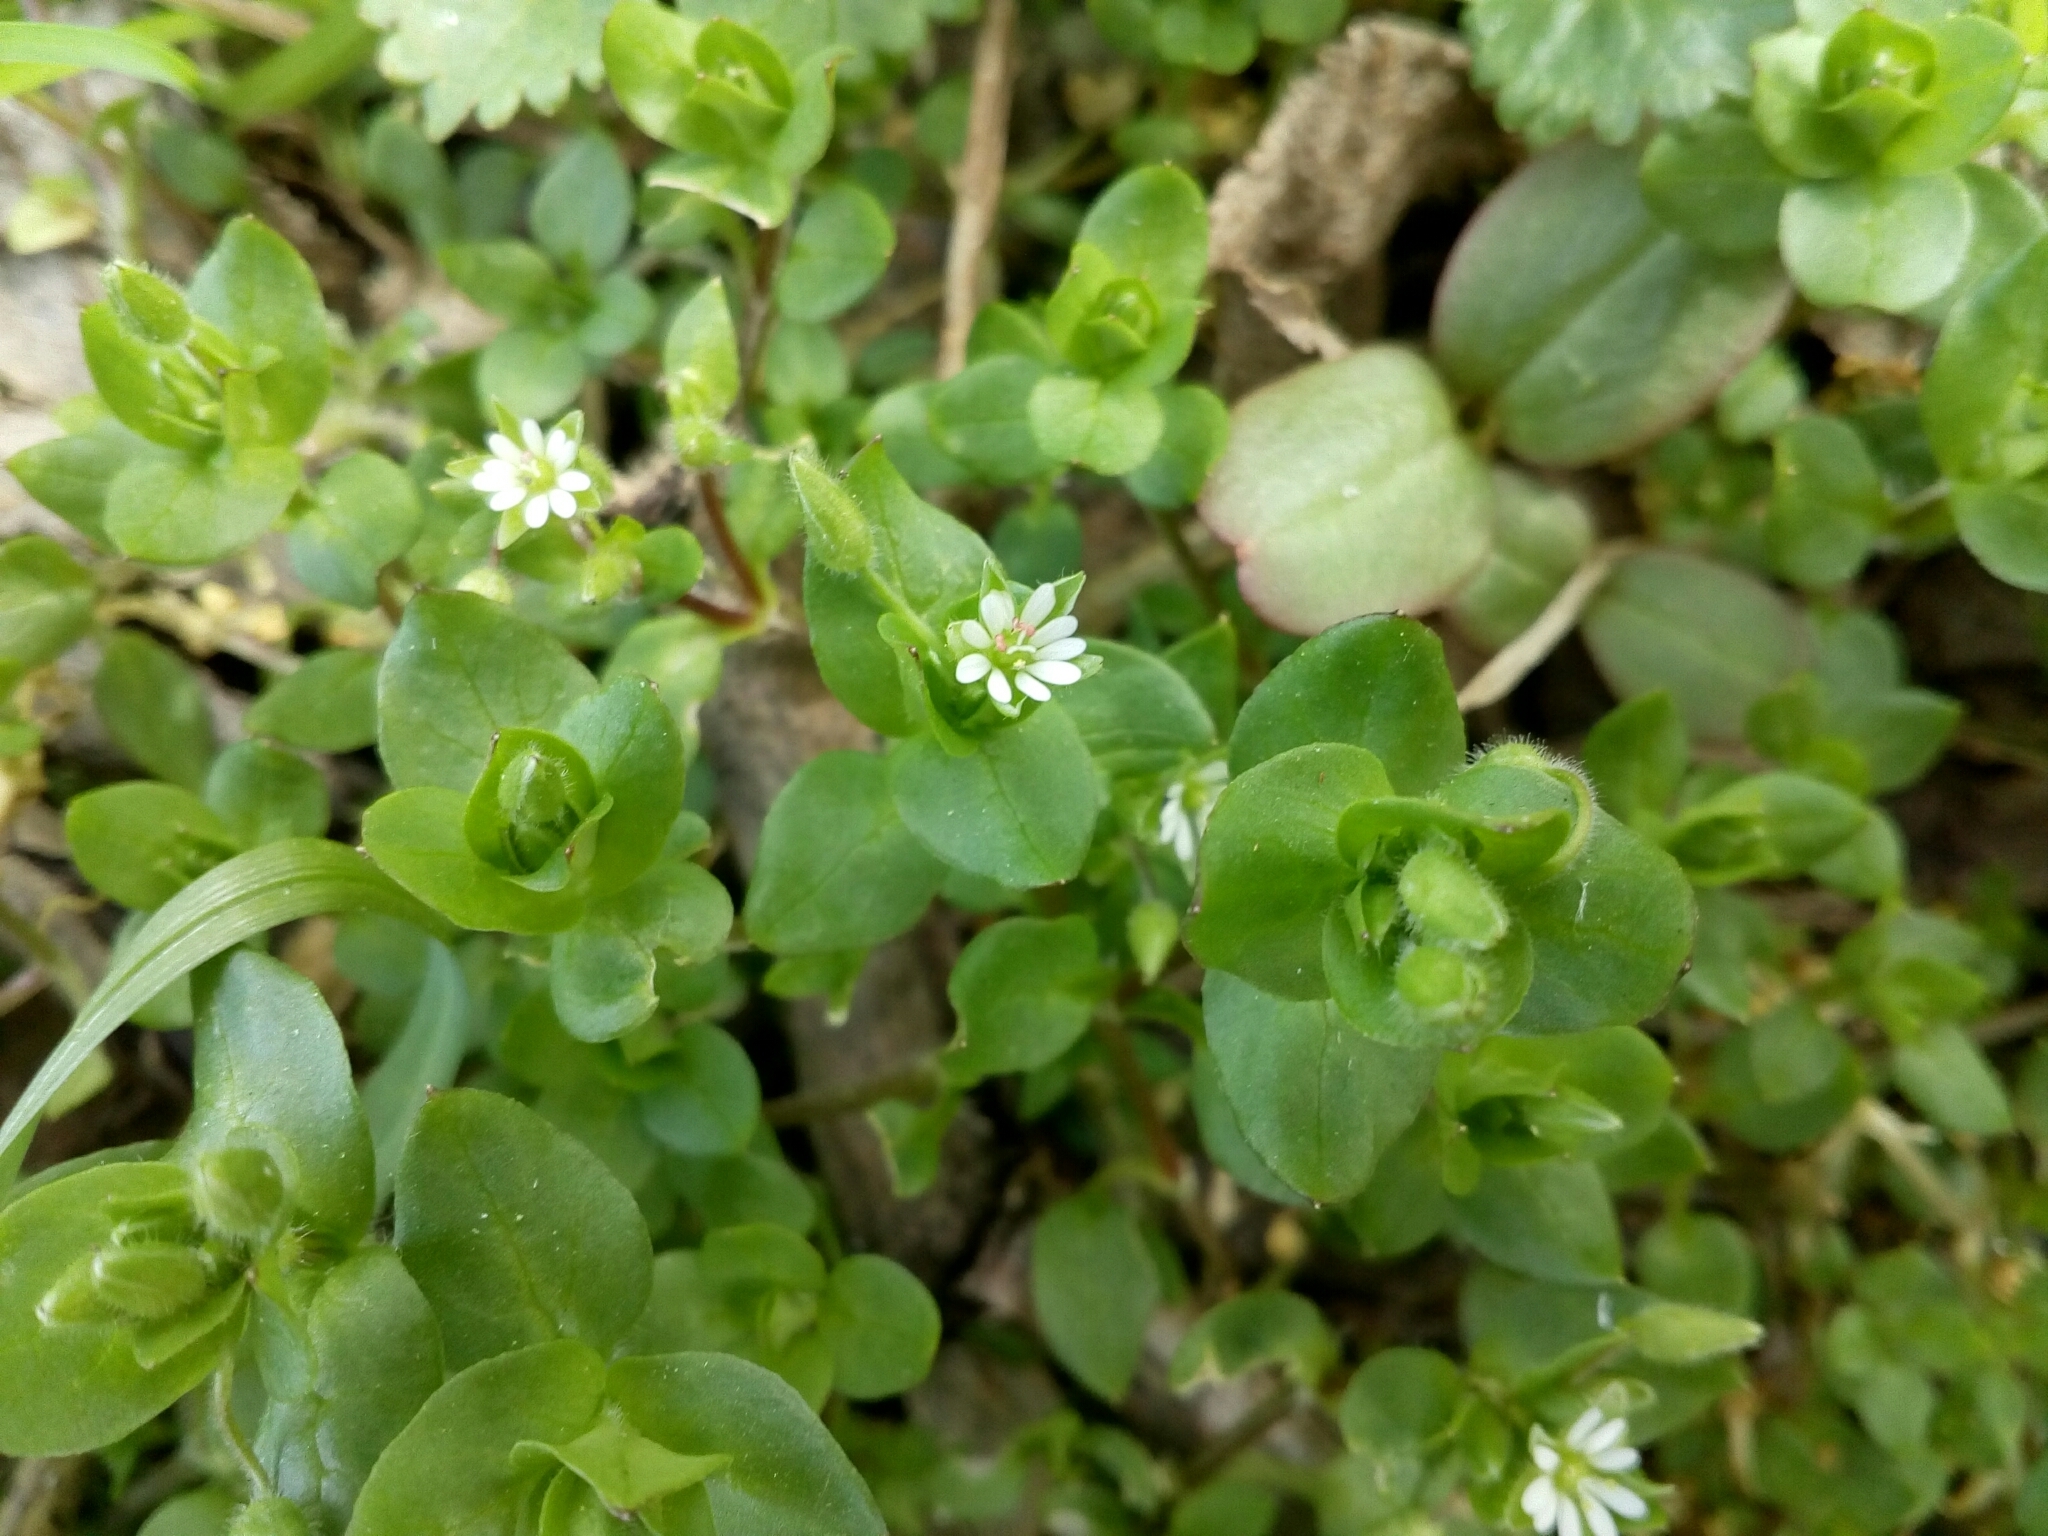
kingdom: Plantae
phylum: Tracheophyta
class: Magnoliopsida
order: Caryophyllales
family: Caryophyllaceae
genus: Stellaria
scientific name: Stellaria media
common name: Common chickweed
